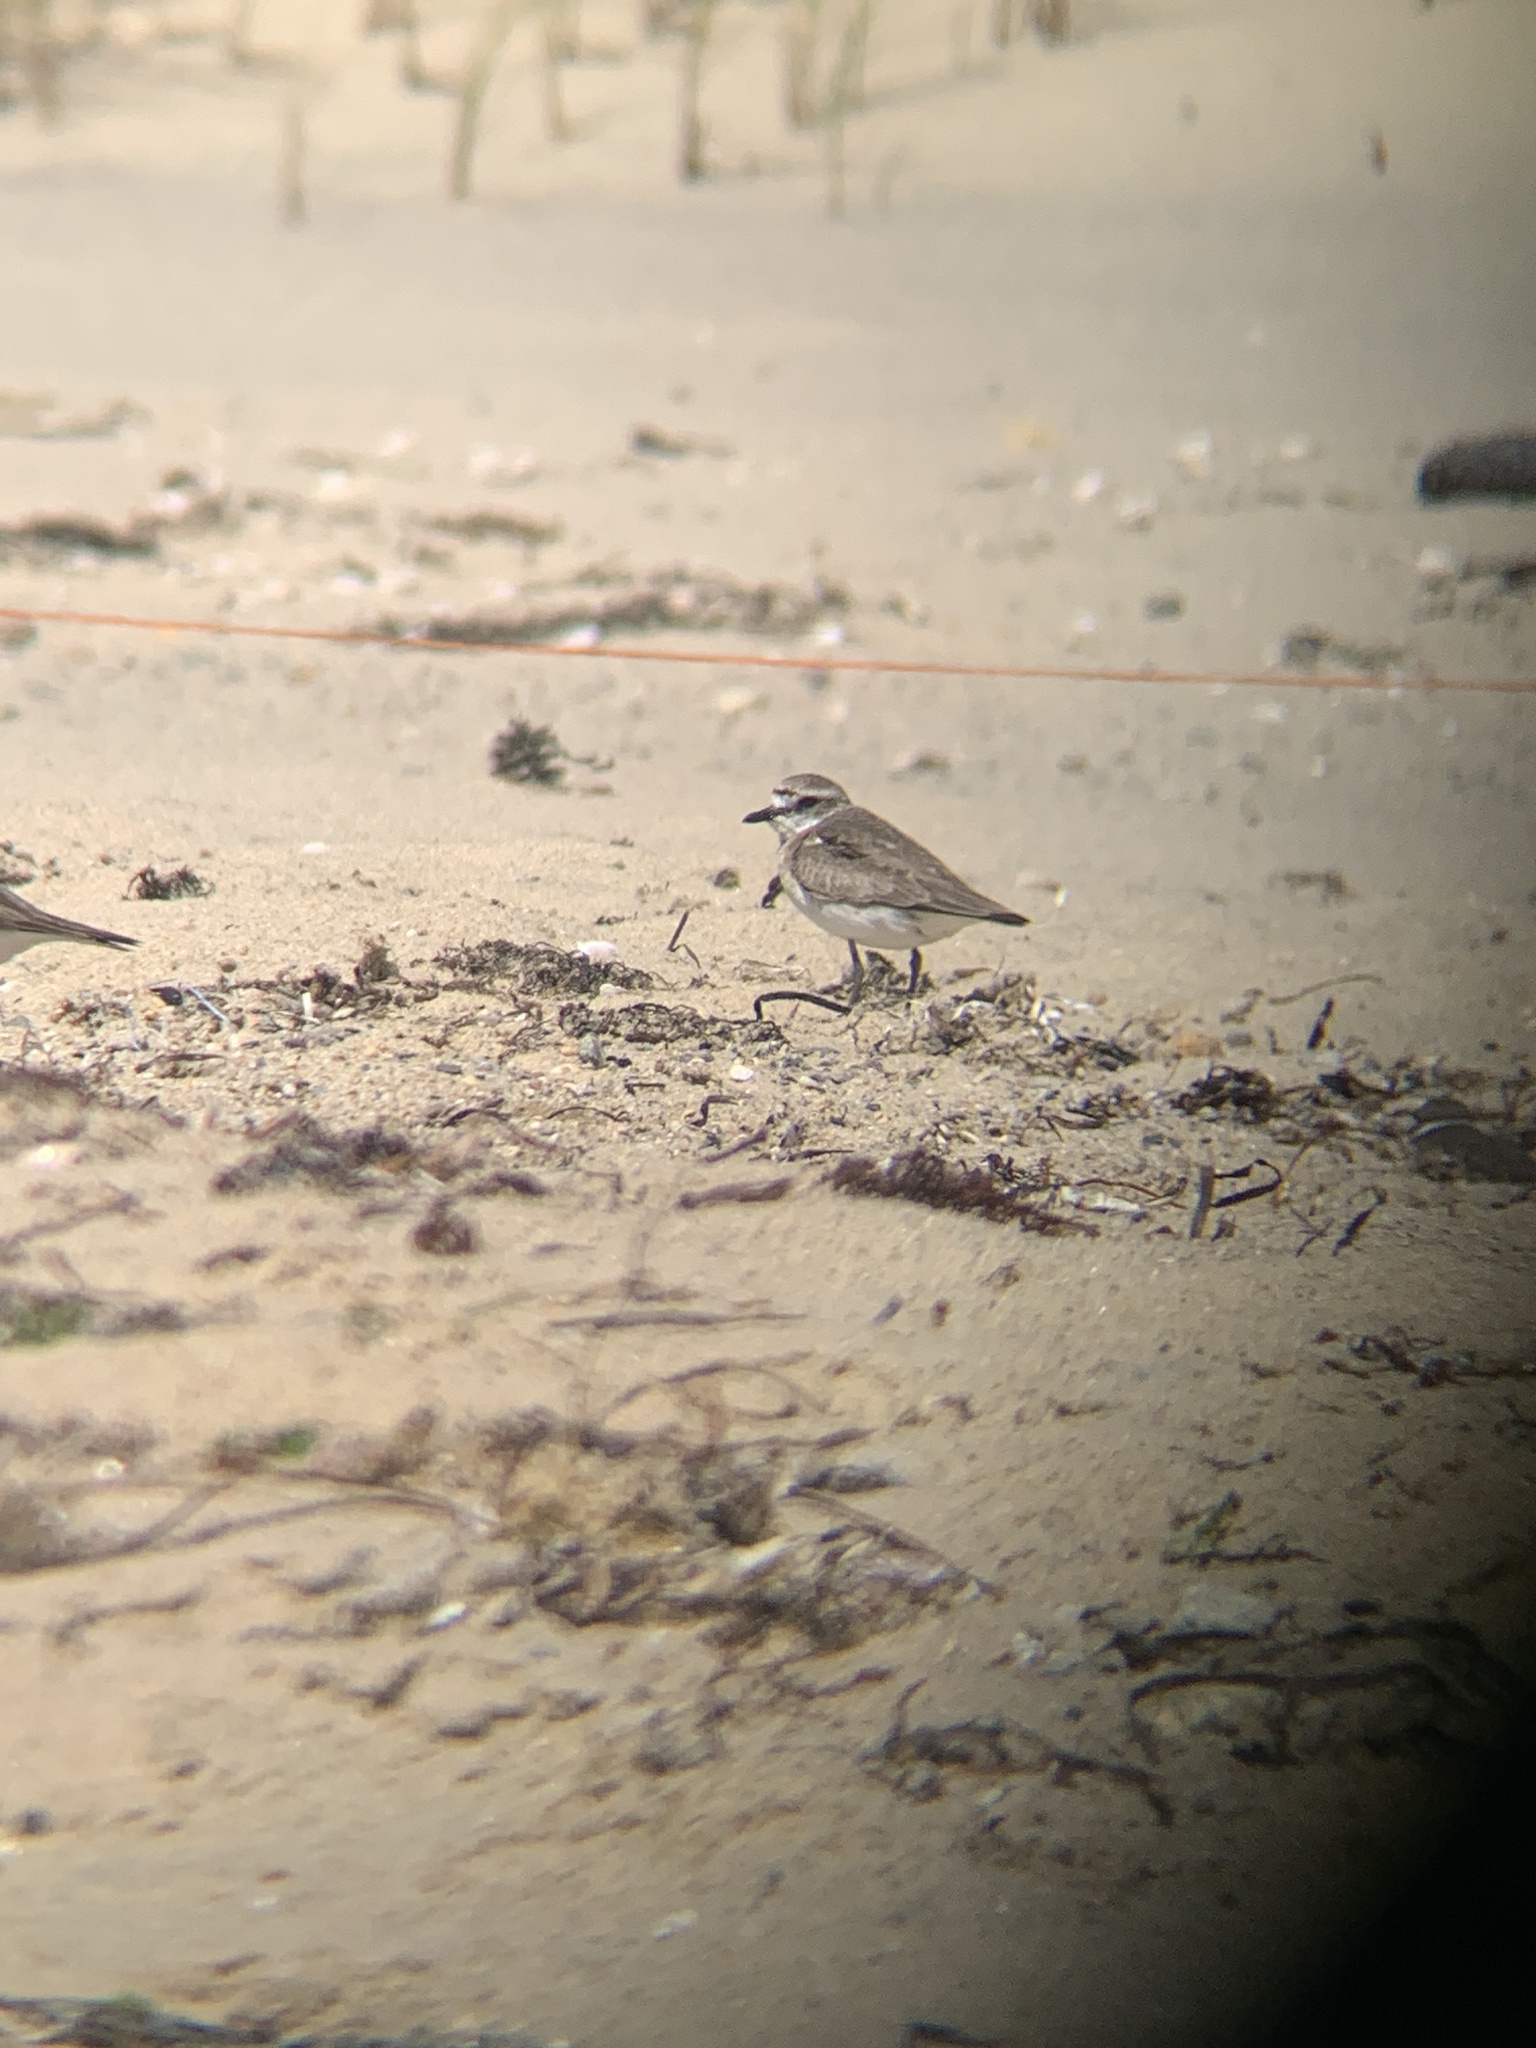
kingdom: Animalia
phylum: Chordata
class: Aves
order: Charadriiformes
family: Charadriidae
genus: Anarhynchus
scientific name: Anarhynchus
